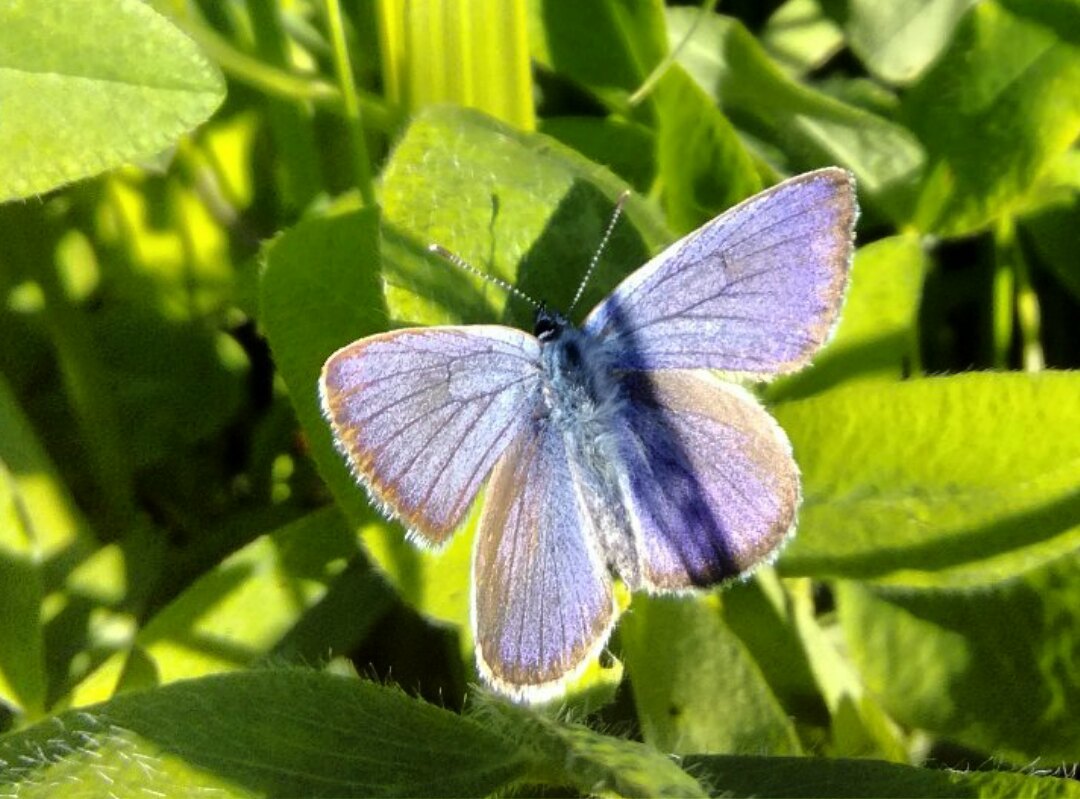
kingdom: Animalia
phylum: Arthropoda
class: Insecta
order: Lepidoptera
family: Lycaenidae
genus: Cyaniris
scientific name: Cyaniris semiargus
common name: Mazarine blue
